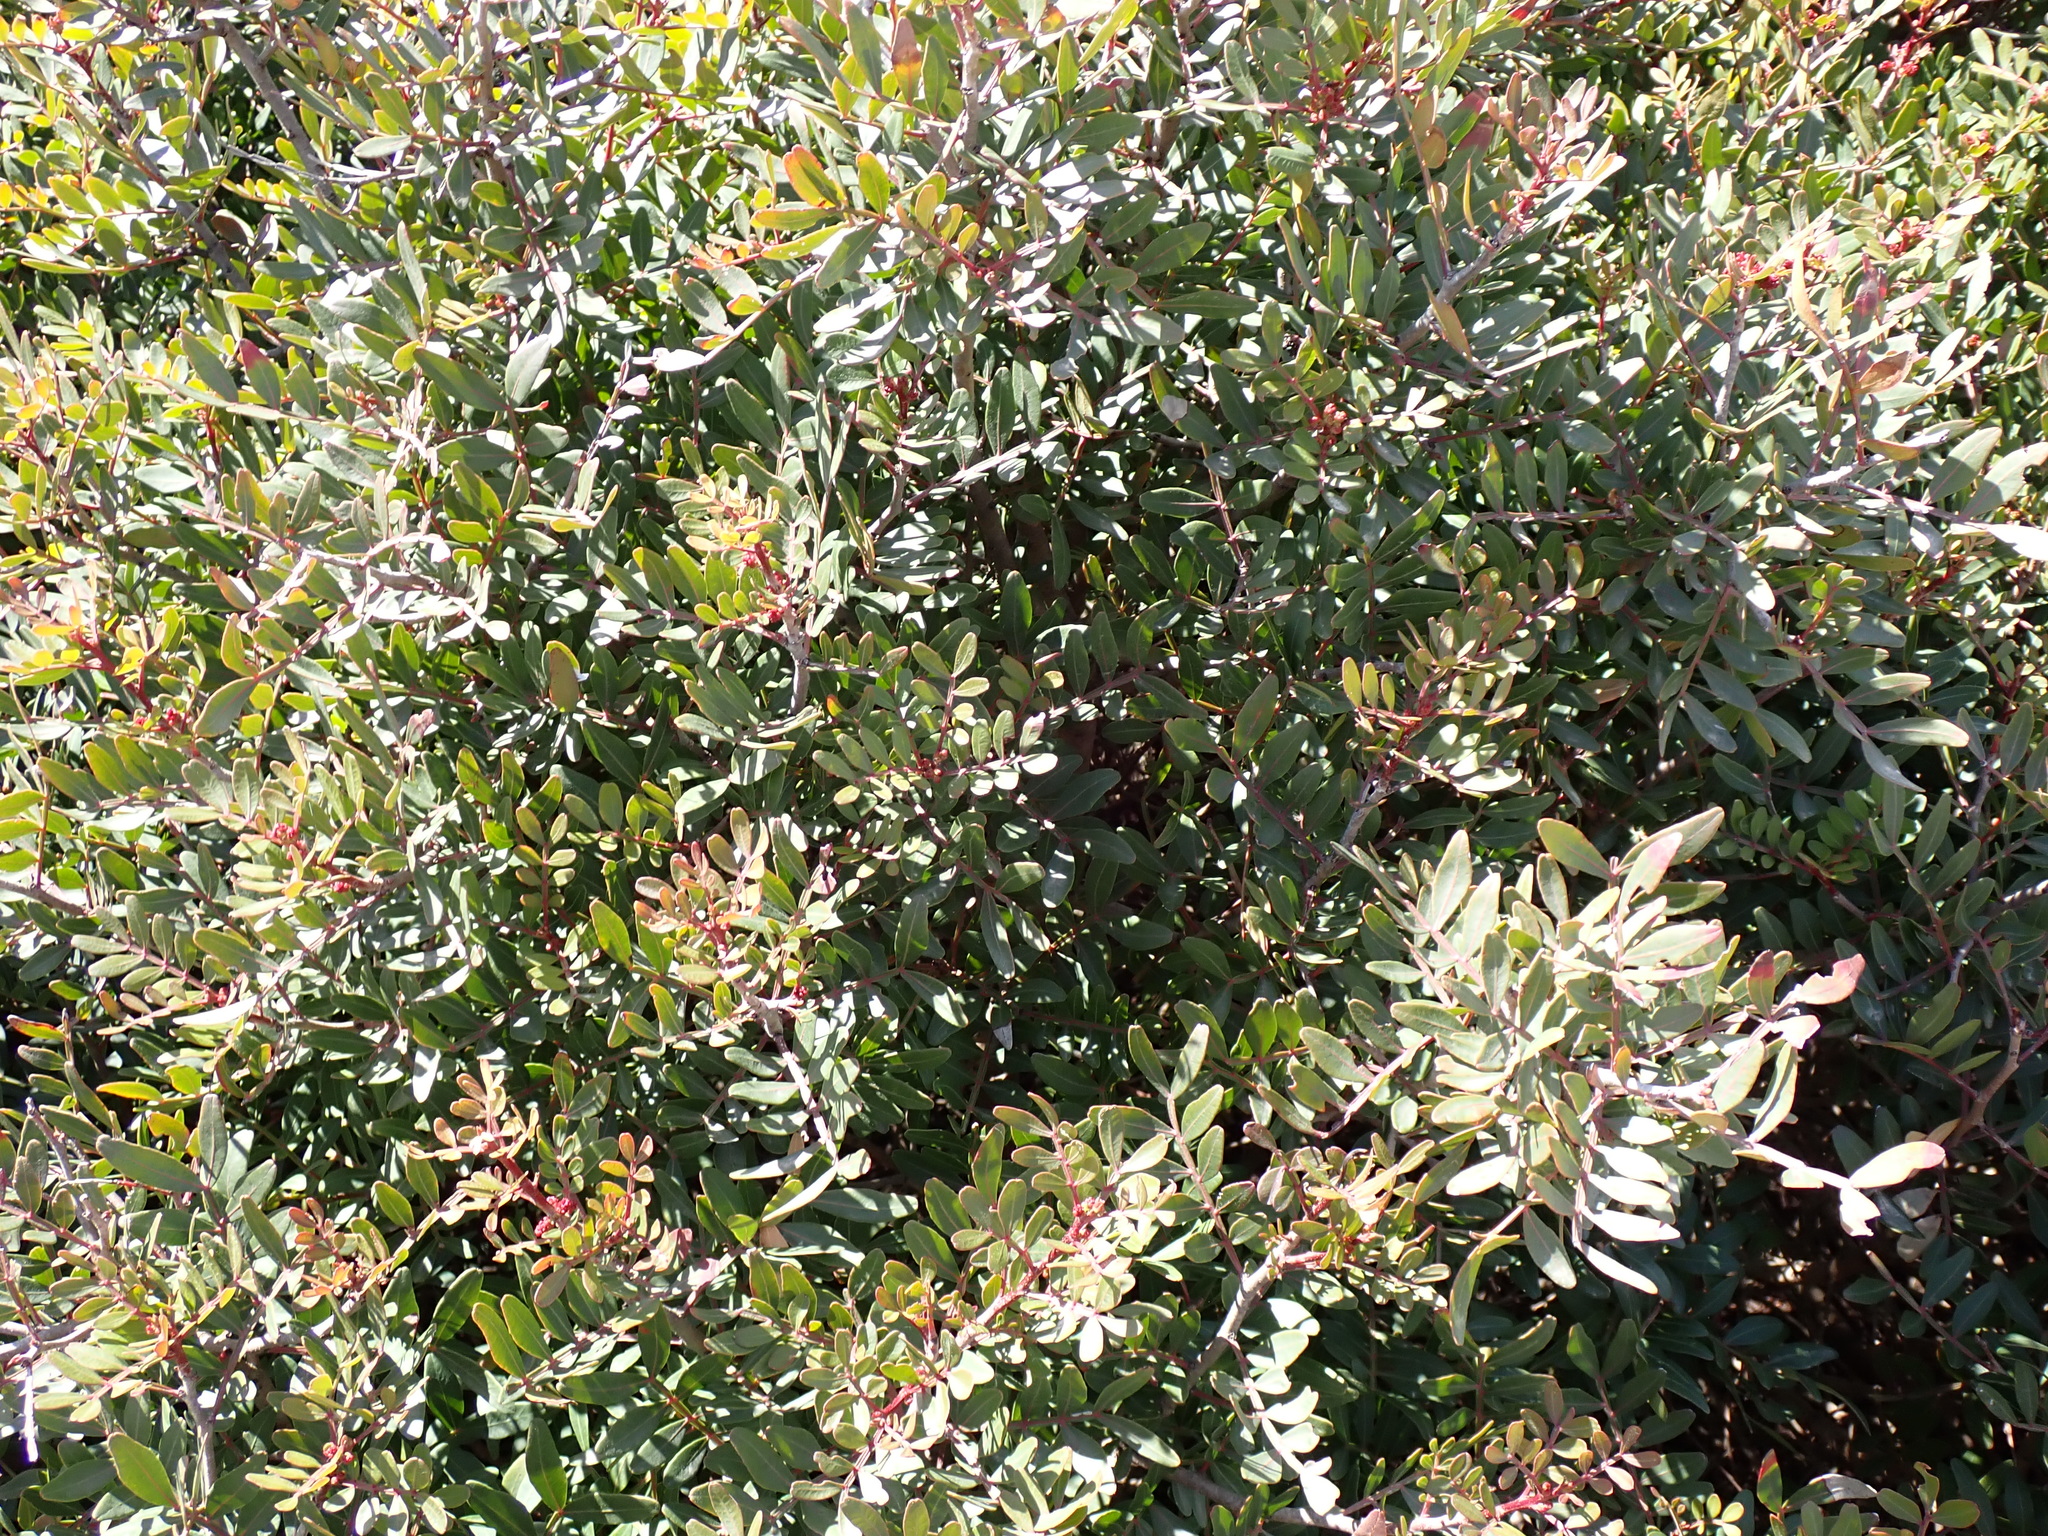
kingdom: Plantae
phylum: Tracheophyta
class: Magnoliopsida
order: Sapindales
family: Anacardiaceae
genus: Pistacia
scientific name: Pistacia lentiscus
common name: Lentisk
